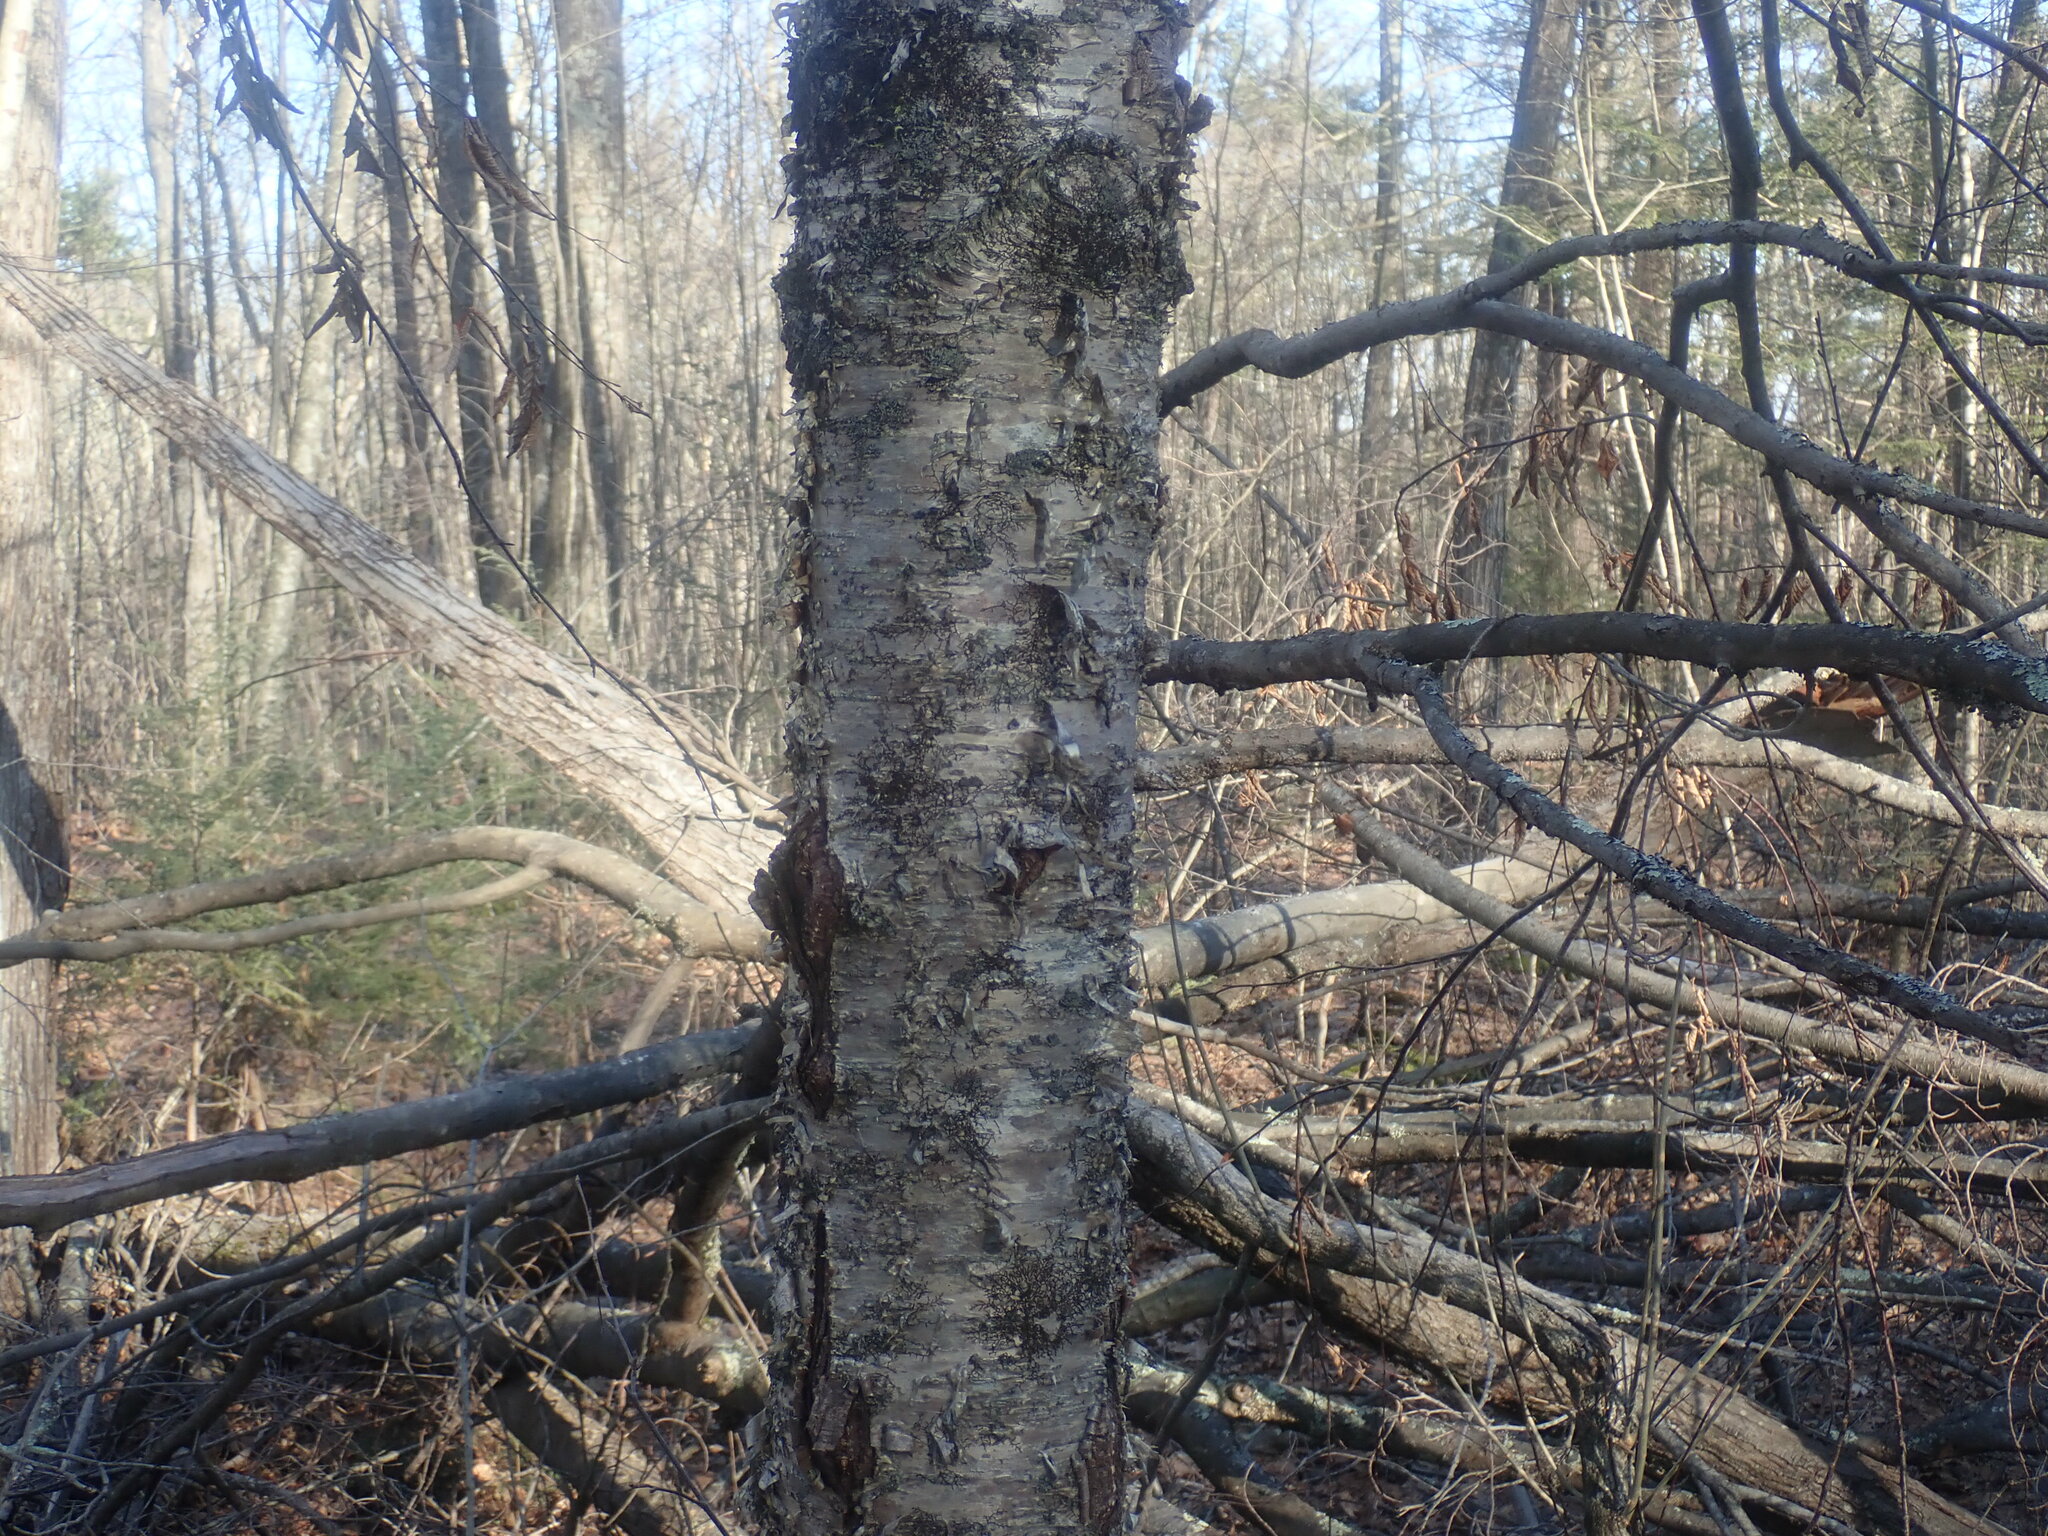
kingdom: Plantae
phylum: Tracheophyta
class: Magnoliopsida
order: Fagales
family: Betulaceae
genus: Betula
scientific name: Betula alleghaniensis
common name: Yellow birch
